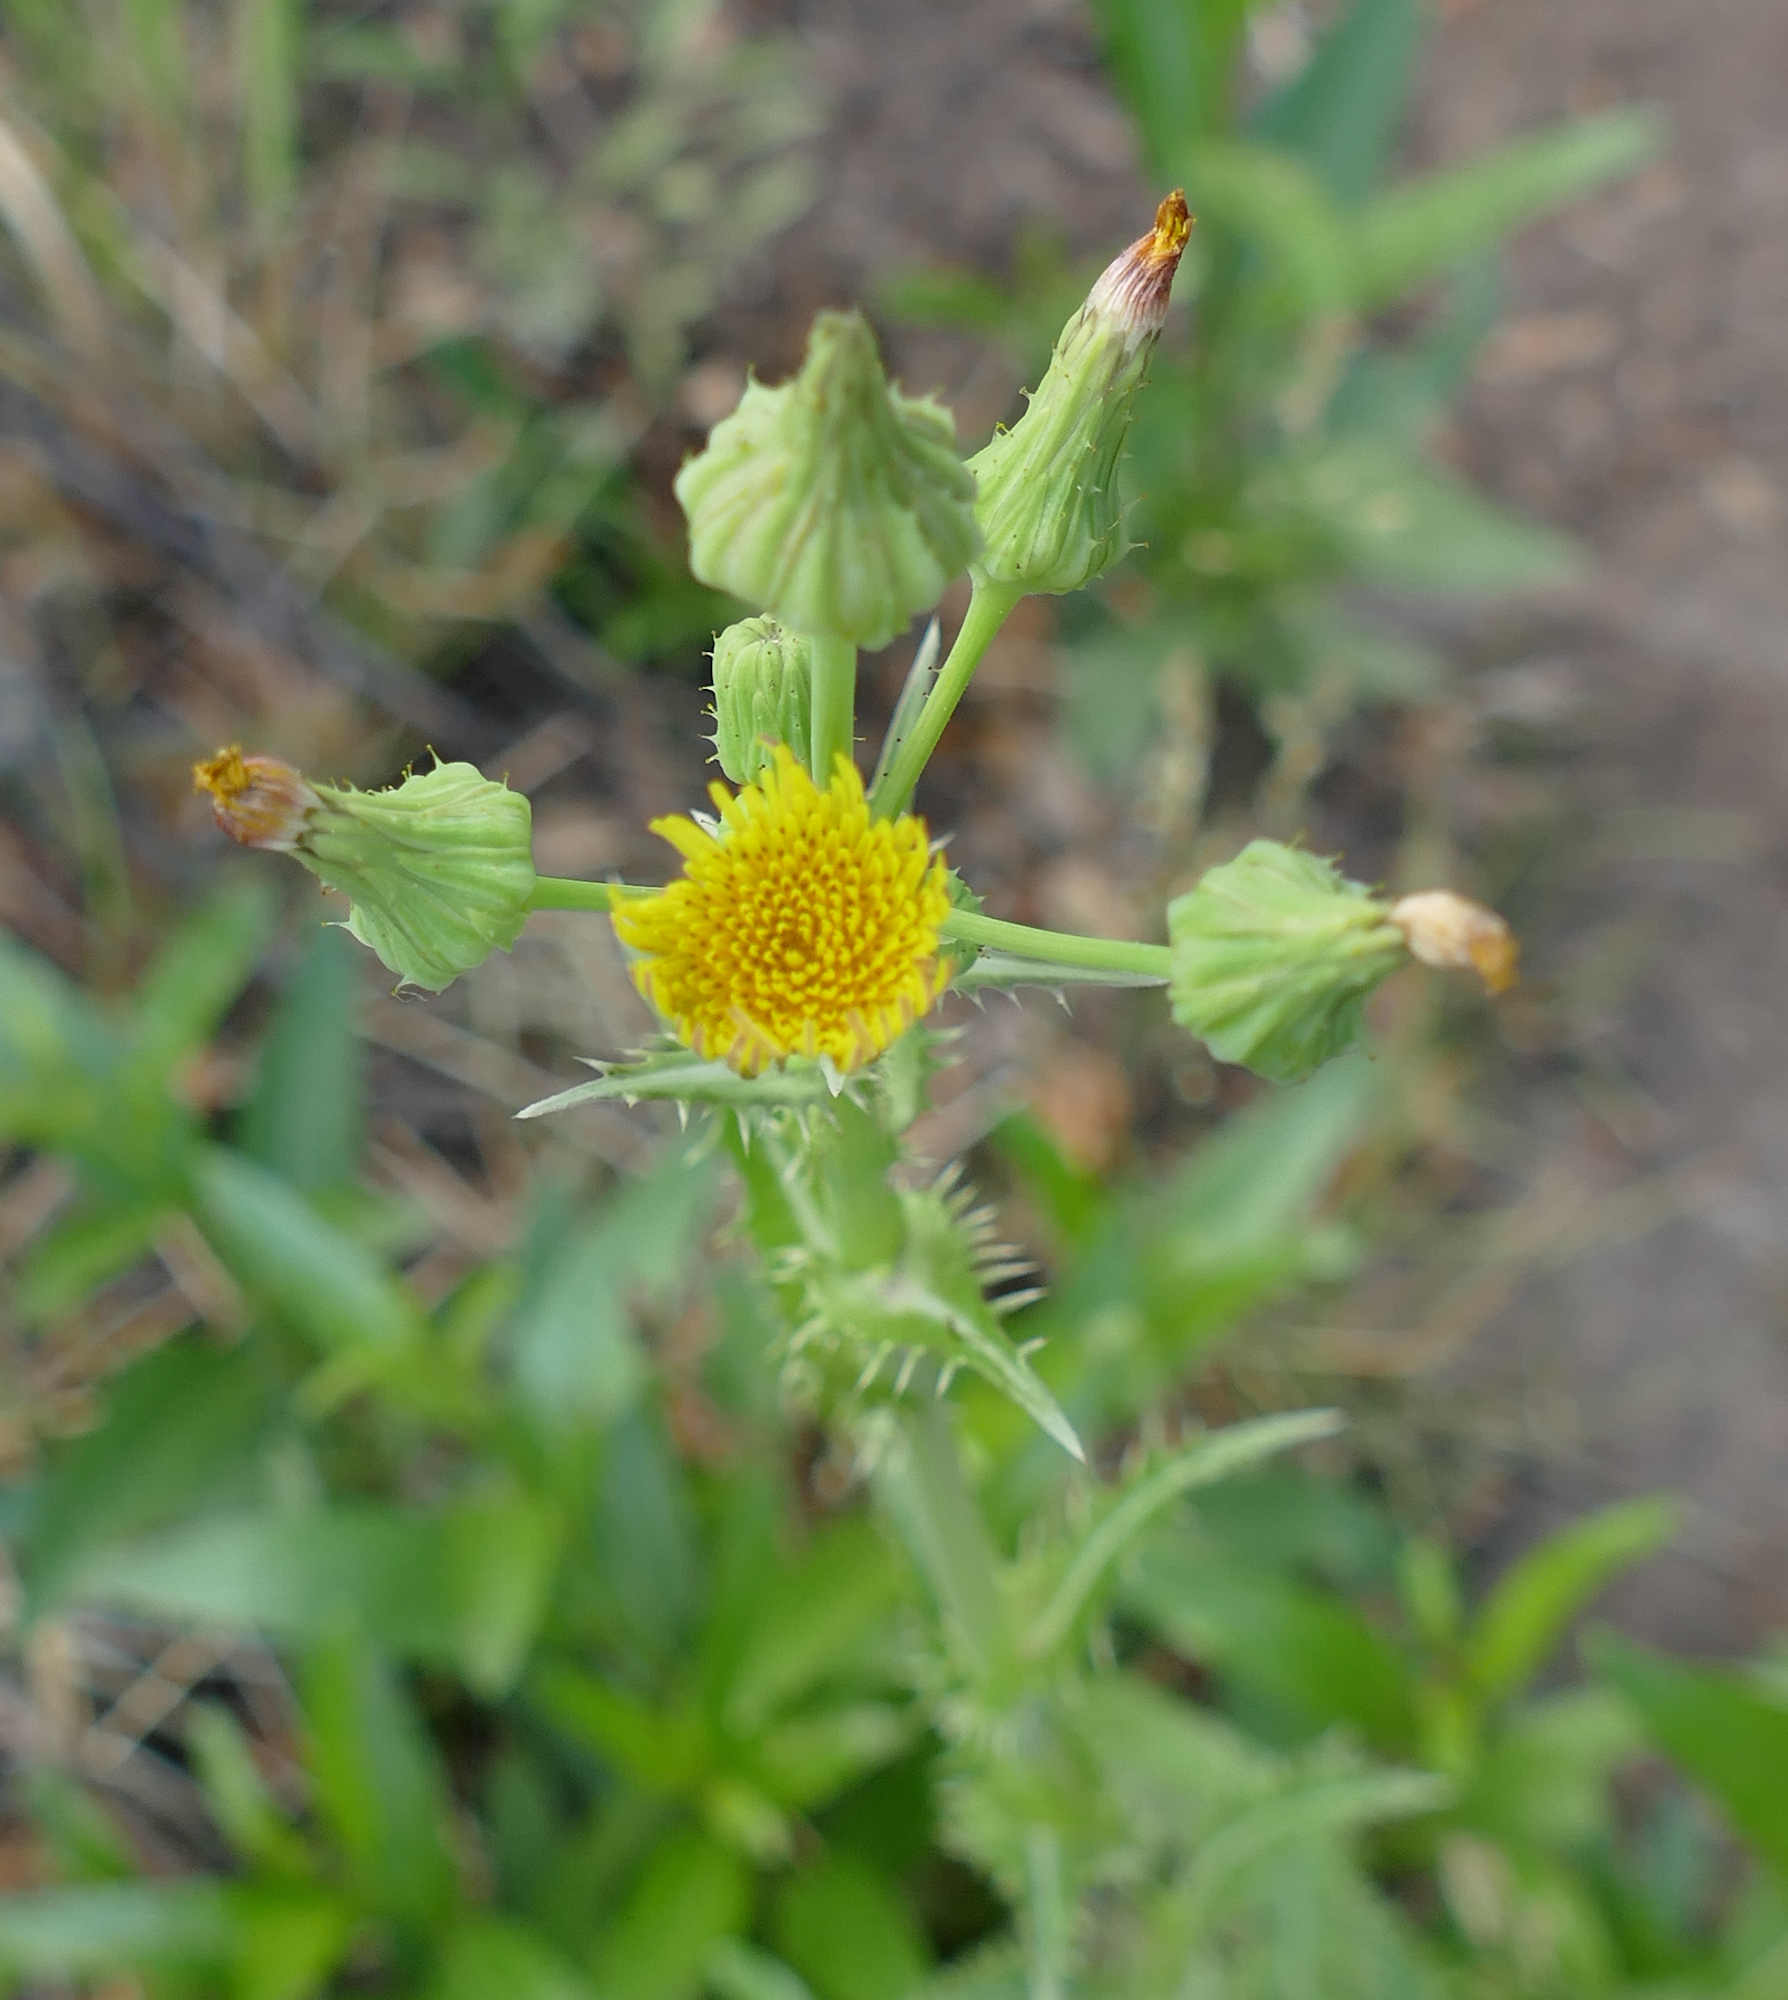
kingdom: Plantae
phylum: Tracheophyta
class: Magnoliopsida
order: Asterales
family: Asteraceae
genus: Sonchus
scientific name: Sonchus asper
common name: Prickly sow-thistle
